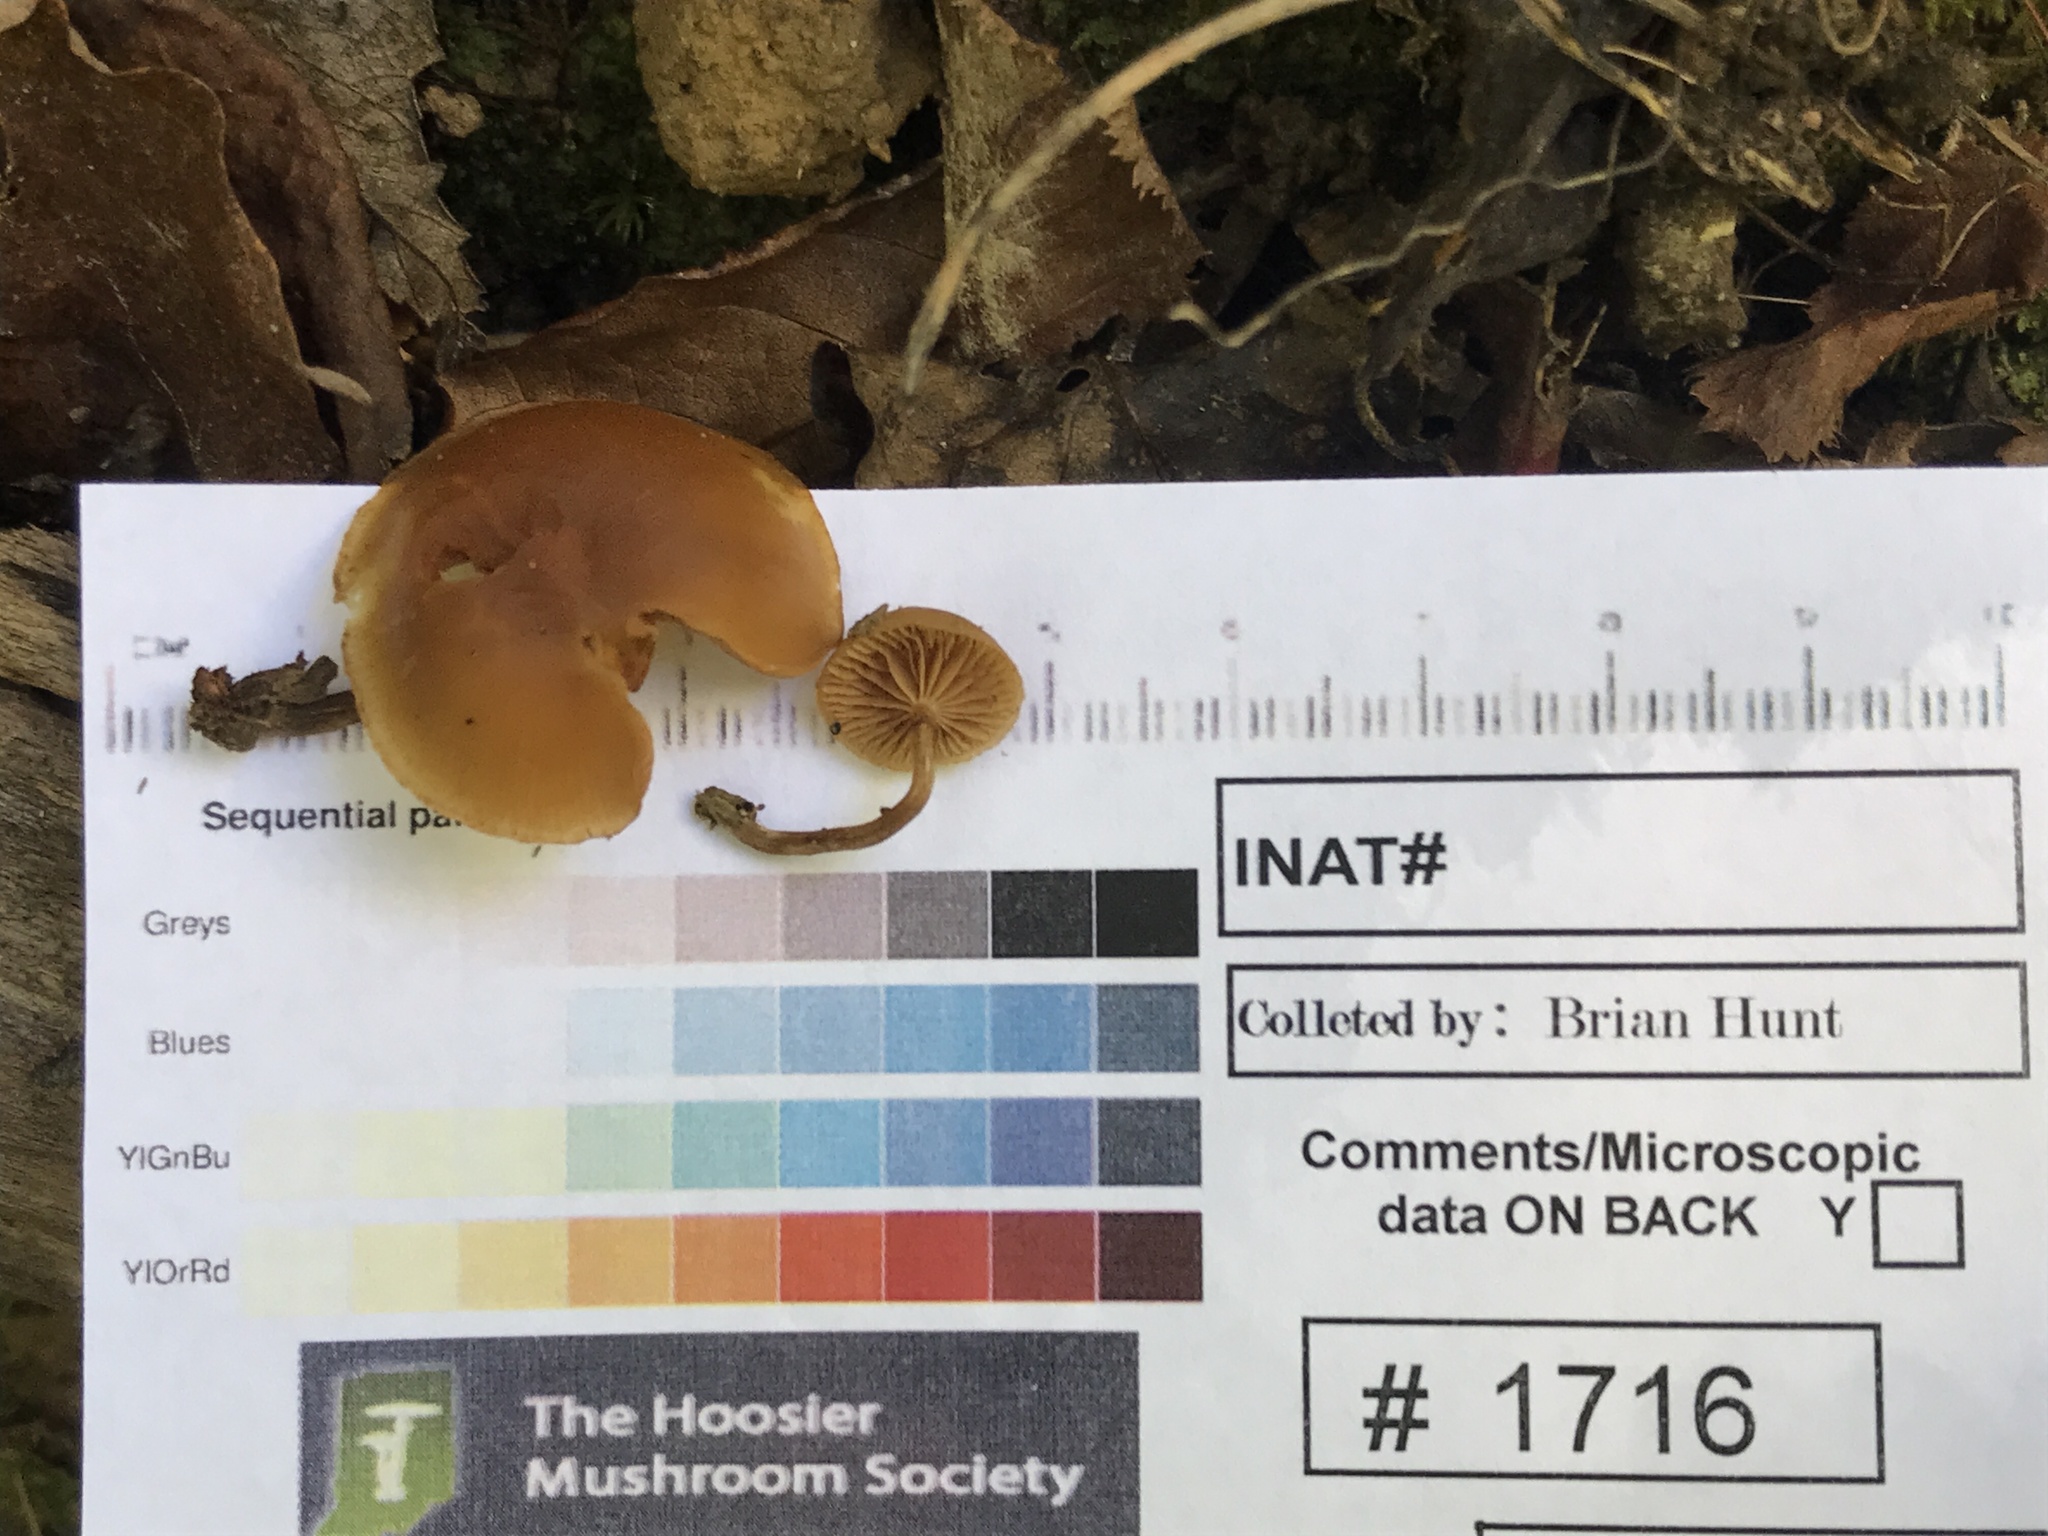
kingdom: Fungi
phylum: Basidiomycota
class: Agaricomycetes
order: Agaricales
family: Hymenogastraceae
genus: Galerina
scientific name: Galerina marginata
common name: Funeral bell
